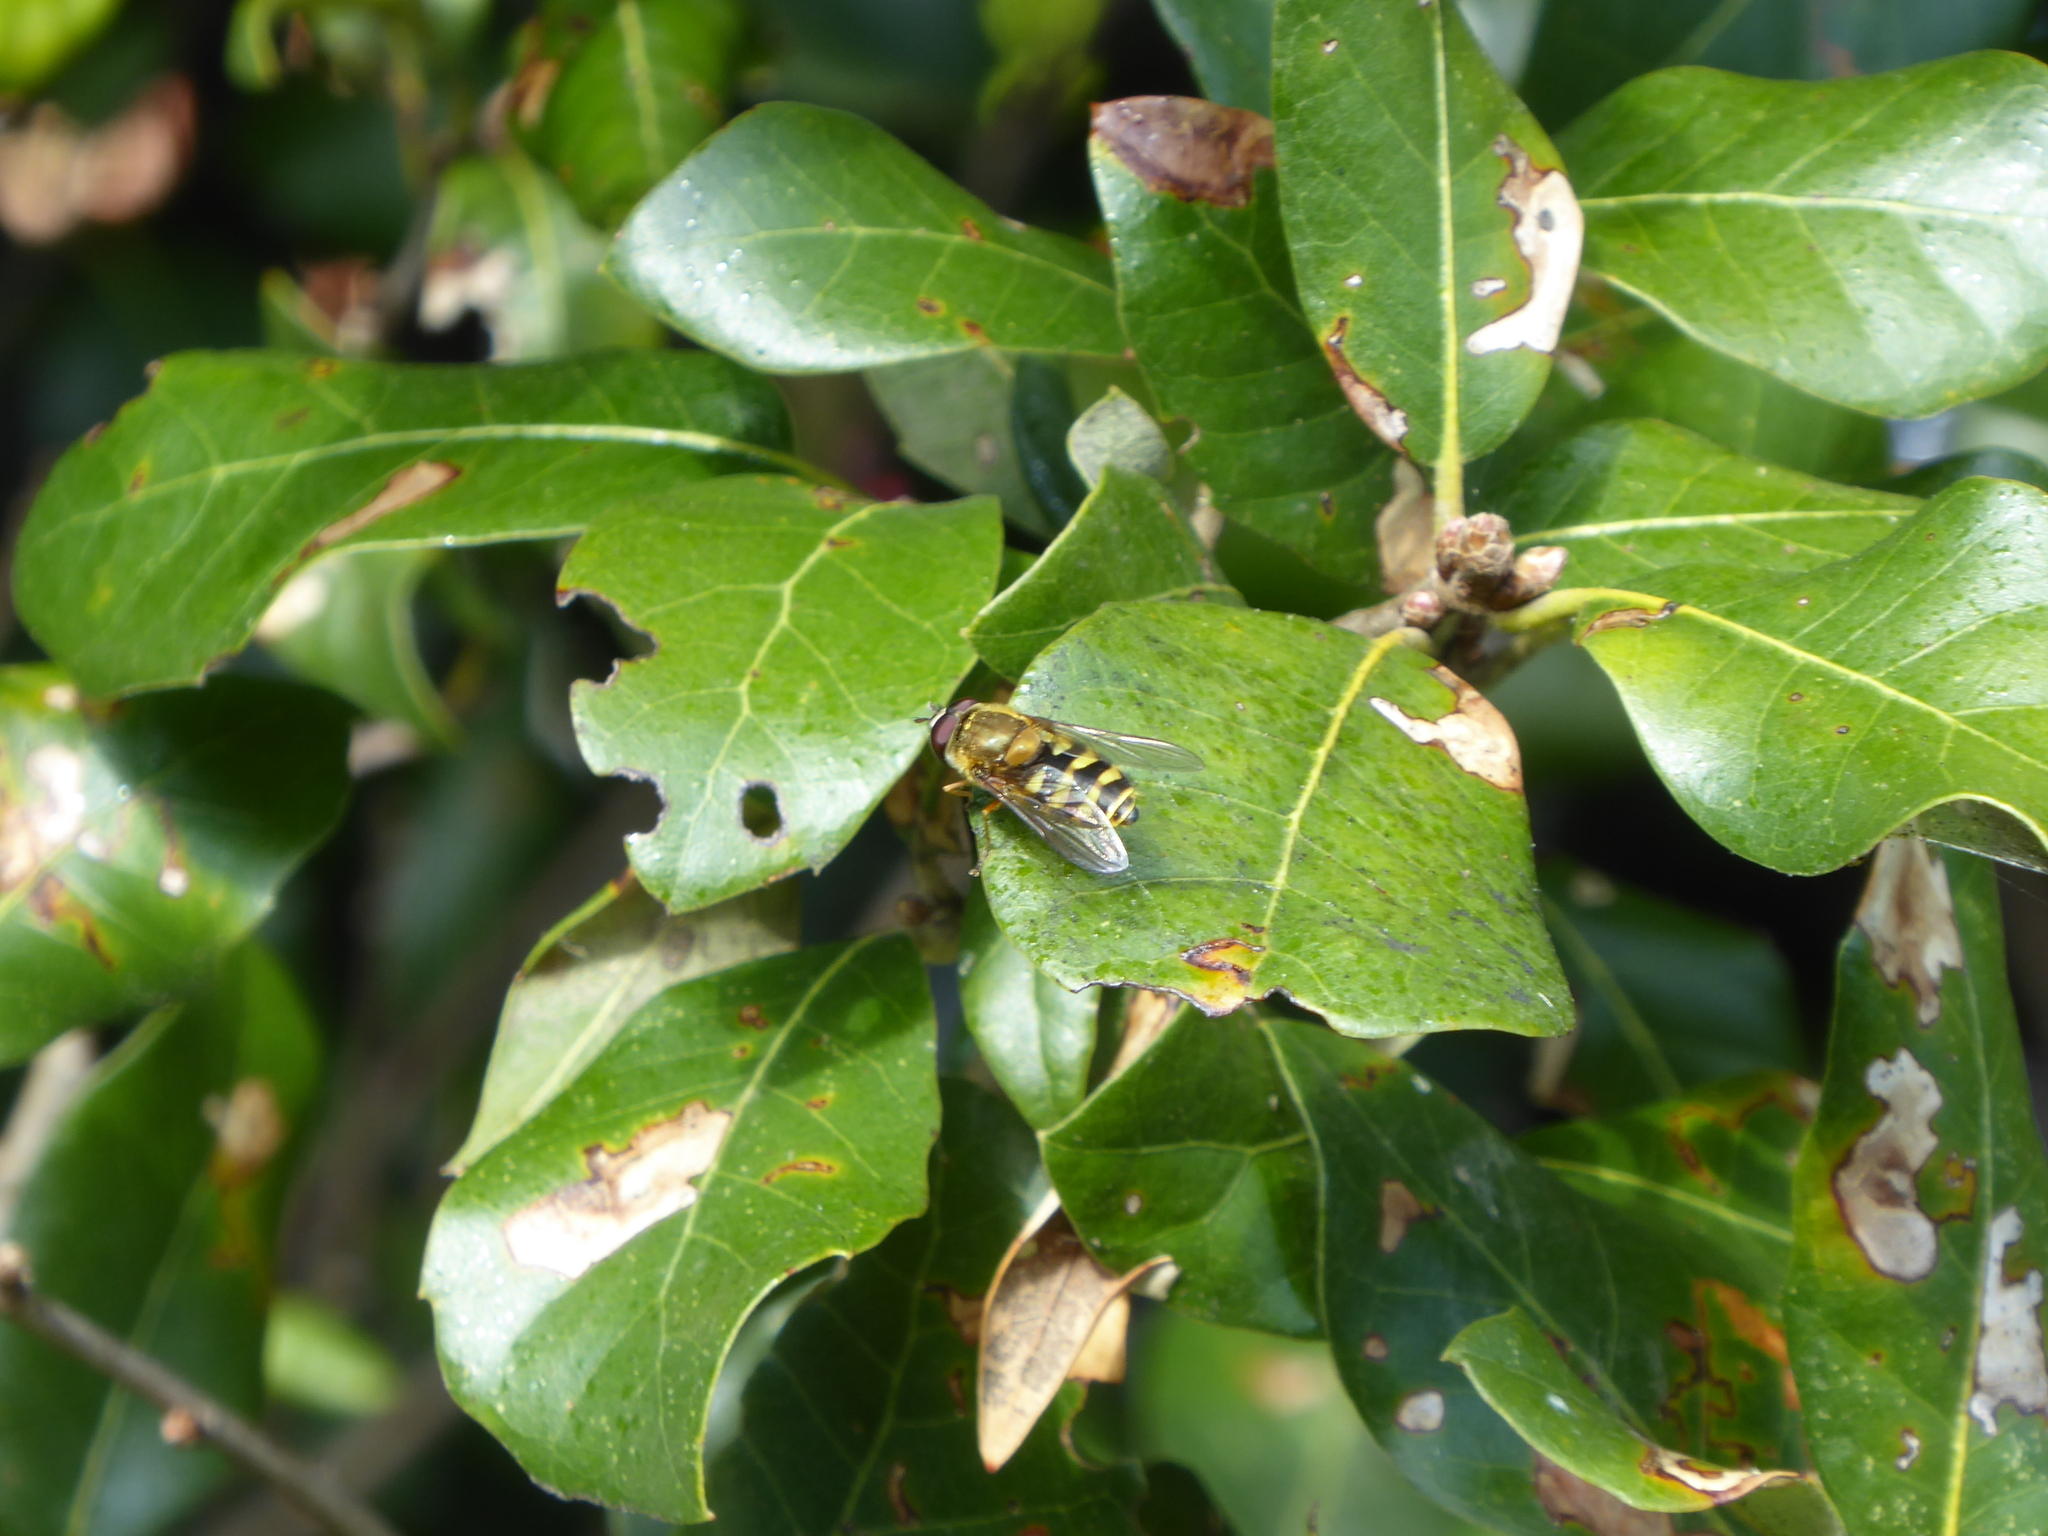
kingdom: Animalia
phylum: Arthropoda
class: Insecta
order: Diptera
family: Syrphidae
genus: Syrphus
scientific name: Syrphus
